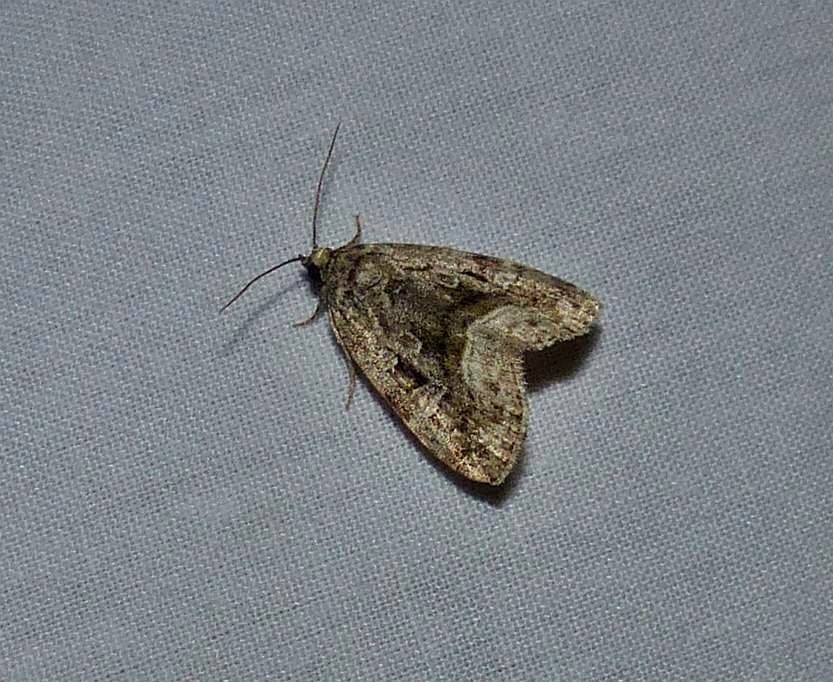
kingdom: Animalia
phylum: Arthropoda
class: Insecta
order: Lepidoptera
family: Noctuidae
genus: Protodeltote
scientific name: Protodeltote muscosula
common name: Large mossy glyph
